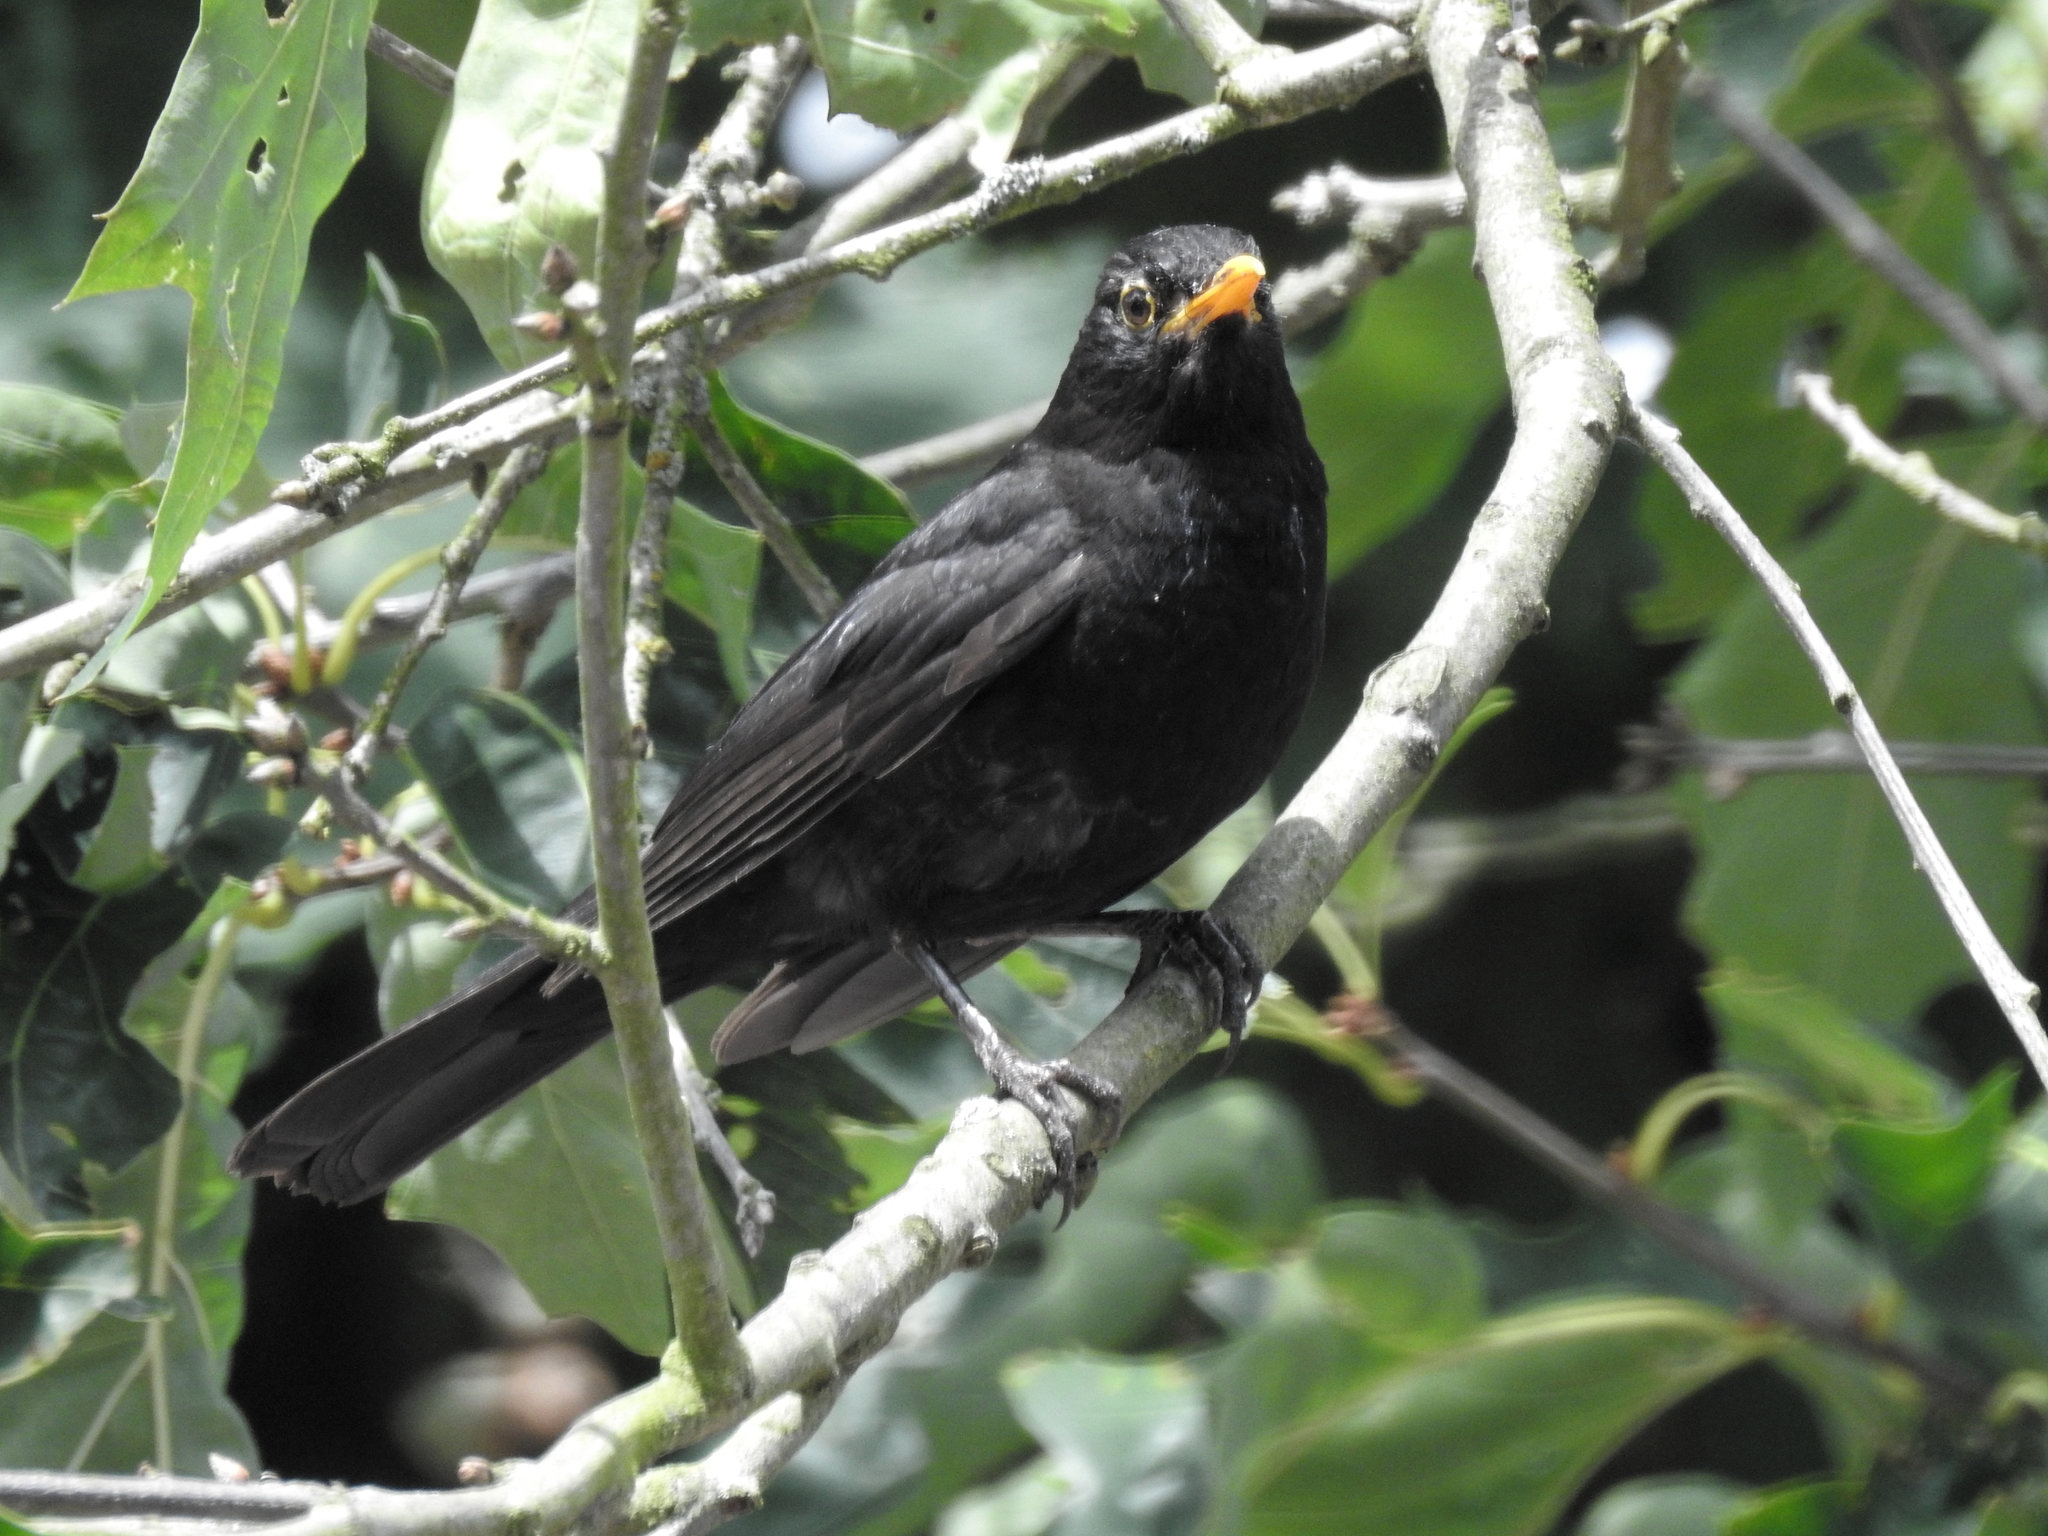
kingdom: Animalia
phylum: Chordata
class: Aves
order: Passeriformes
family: Turdidae
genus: Turdus
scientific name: Turdus merula
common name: Common blackbird
